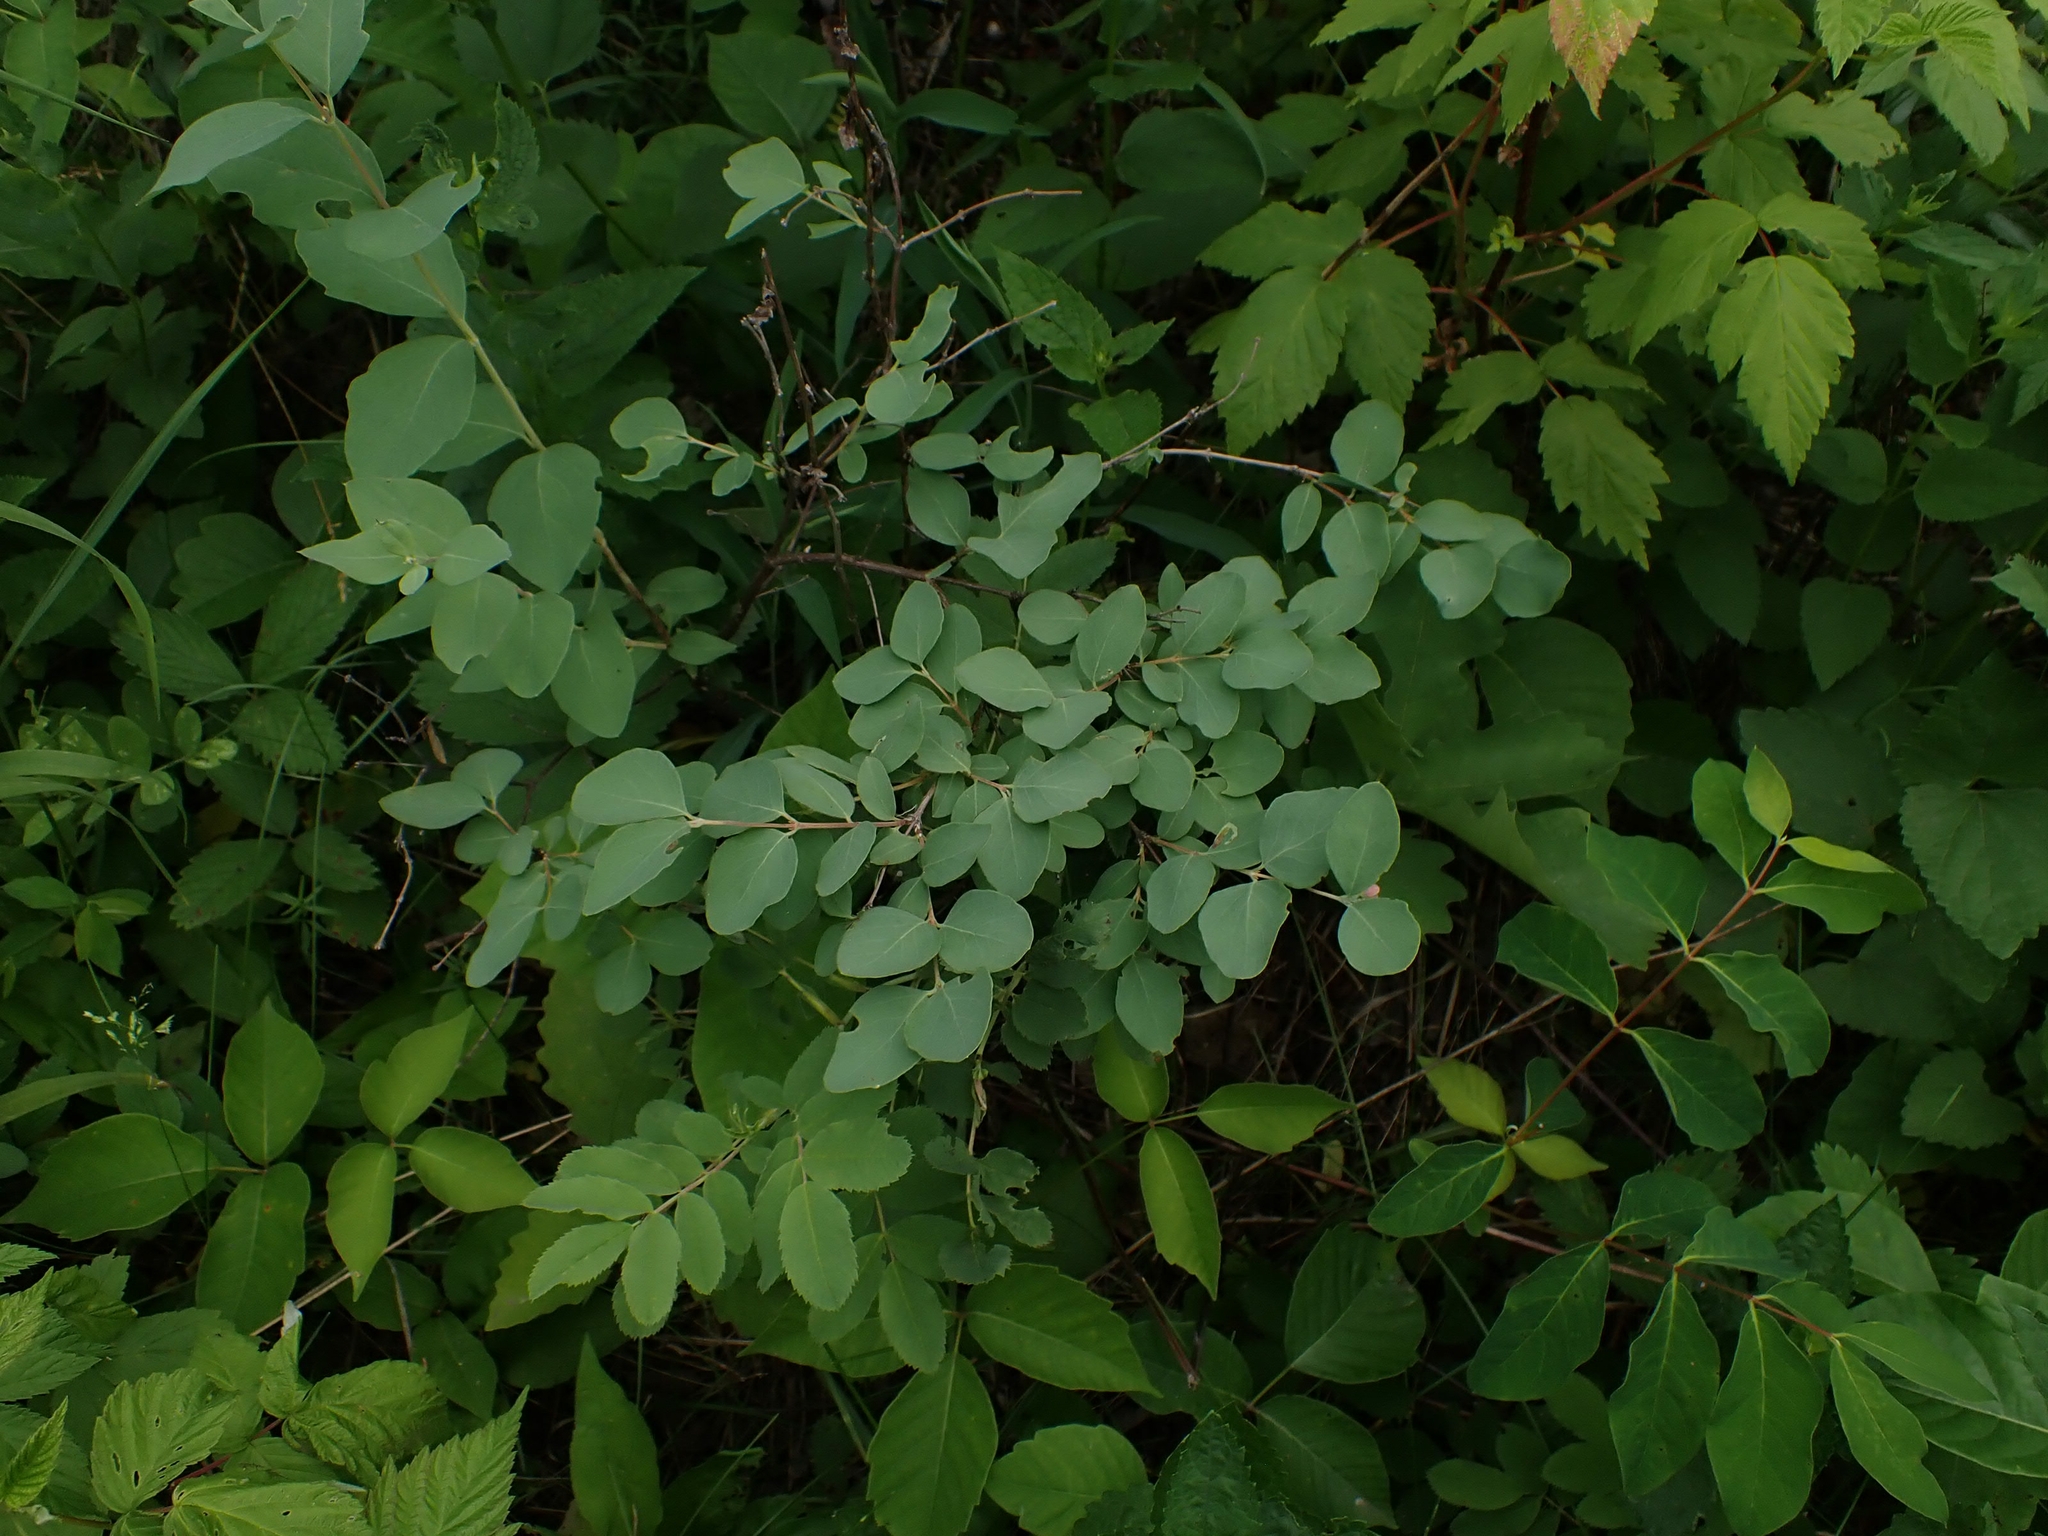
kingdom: Plantae
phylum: Tracheophyta
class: Magnoliopsida
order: Dipsacales
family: Caprifoliaceae
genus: Symphoricarpos
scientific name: Symphoricarpos occidentalis
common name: Wolfberry
